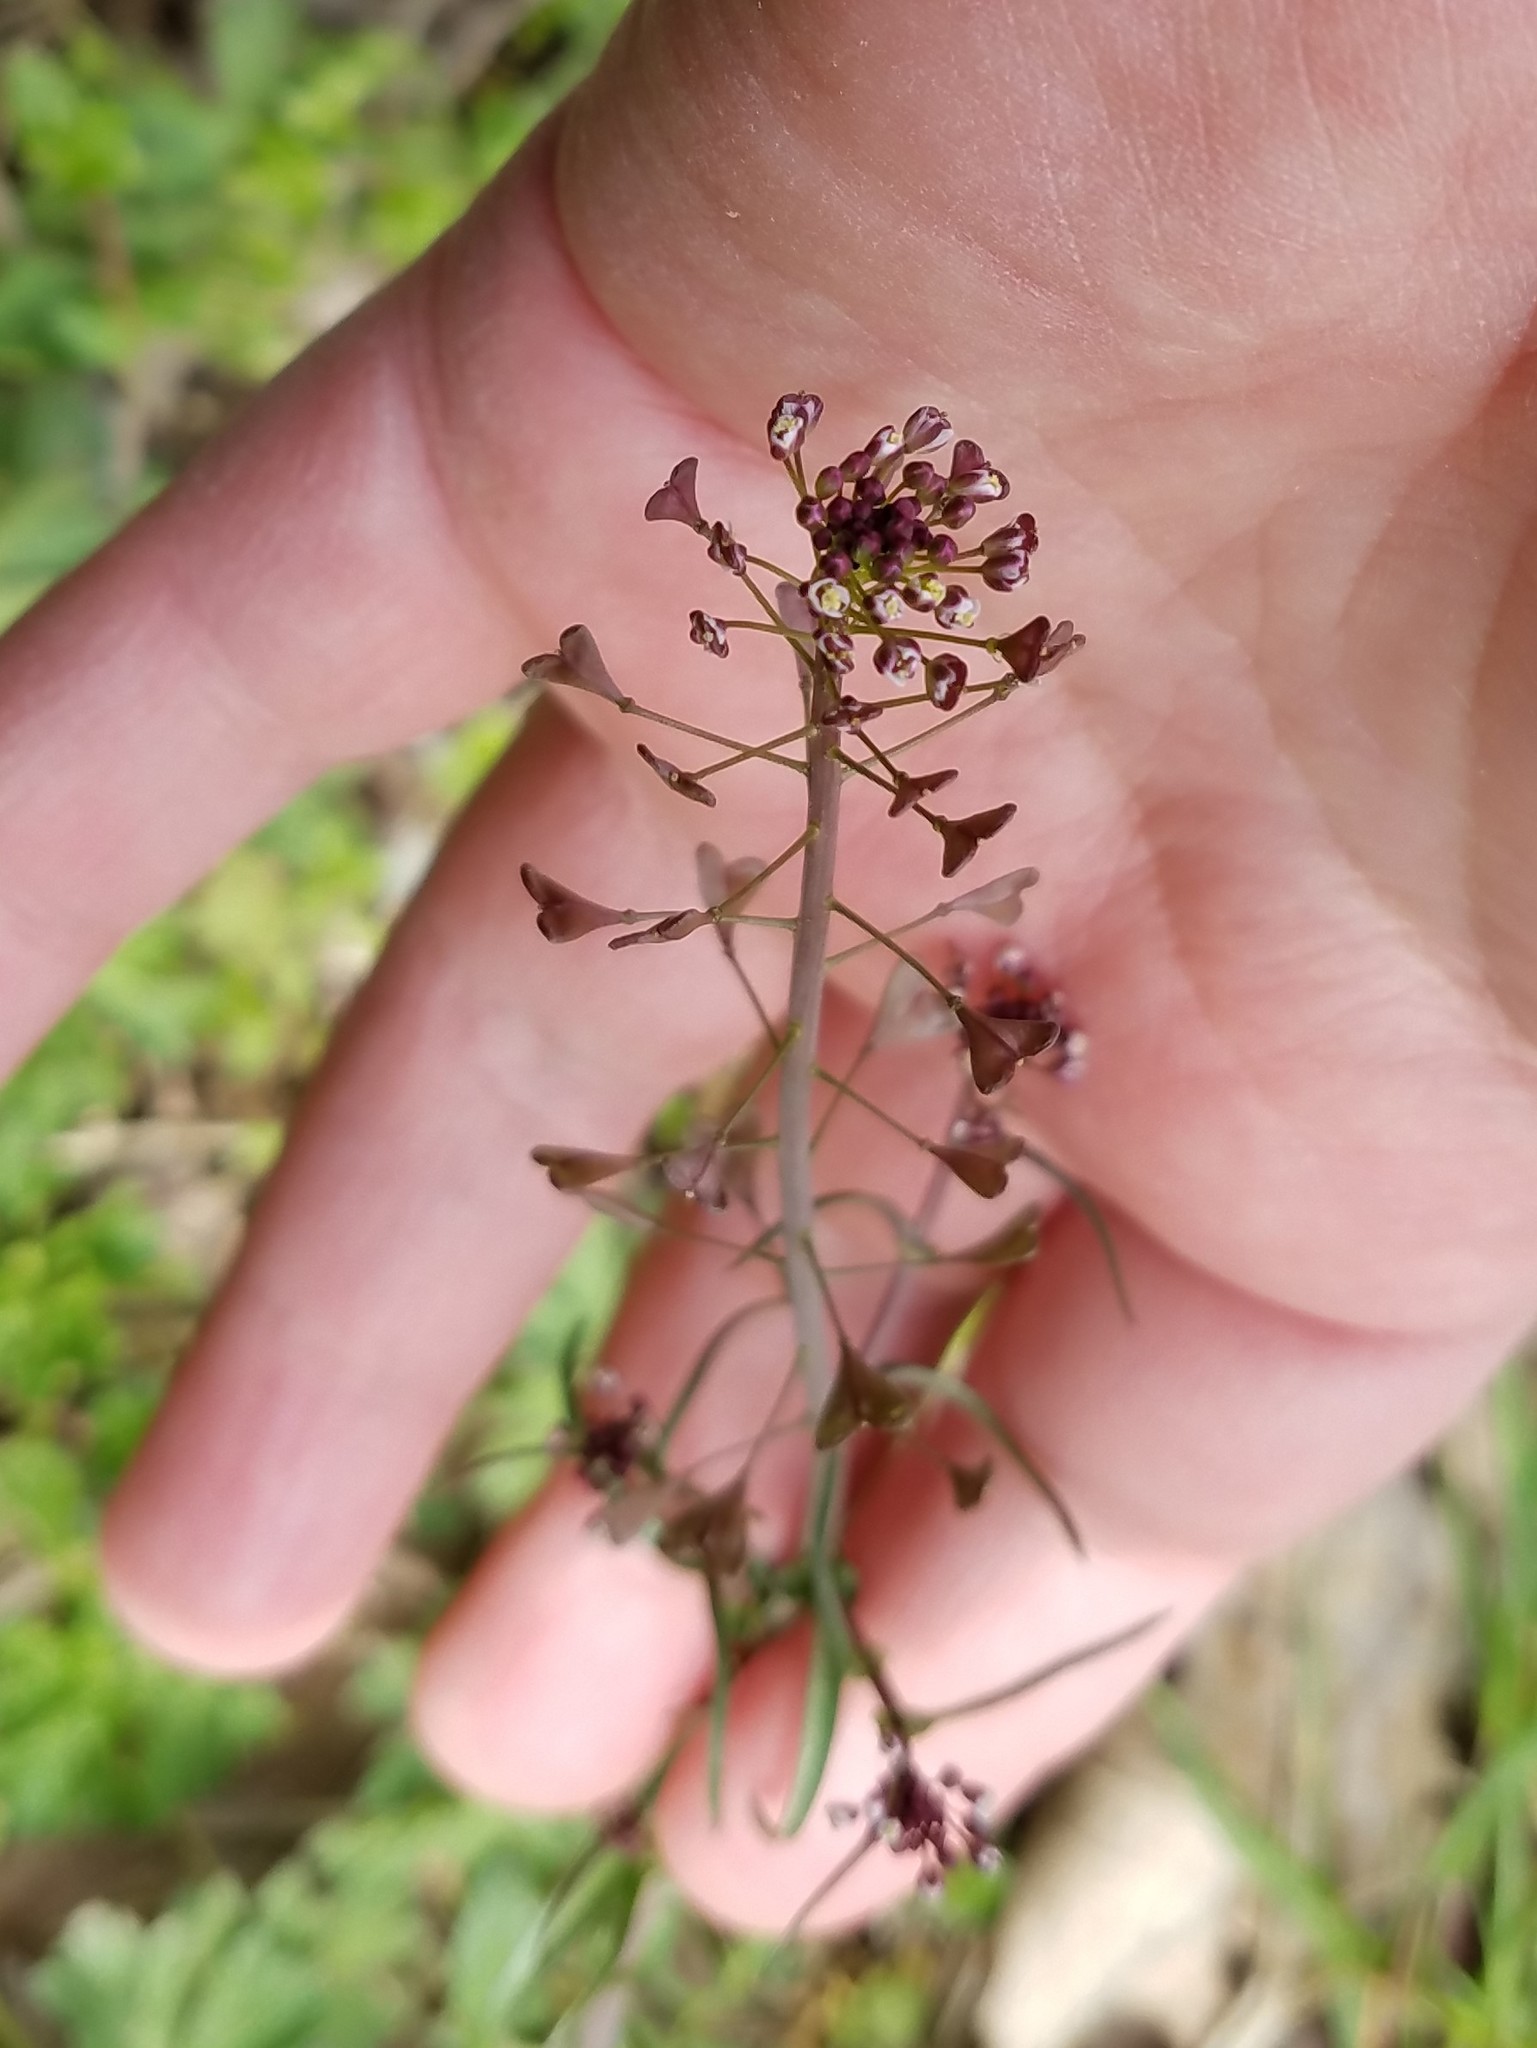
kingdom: Plantae
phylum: Tracheophyta
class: Magnoliopsida
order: Brassicales
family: Brassicaceae
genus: Capsella
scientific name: Capsella bursa-pastoris
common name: Shepherd's purse
